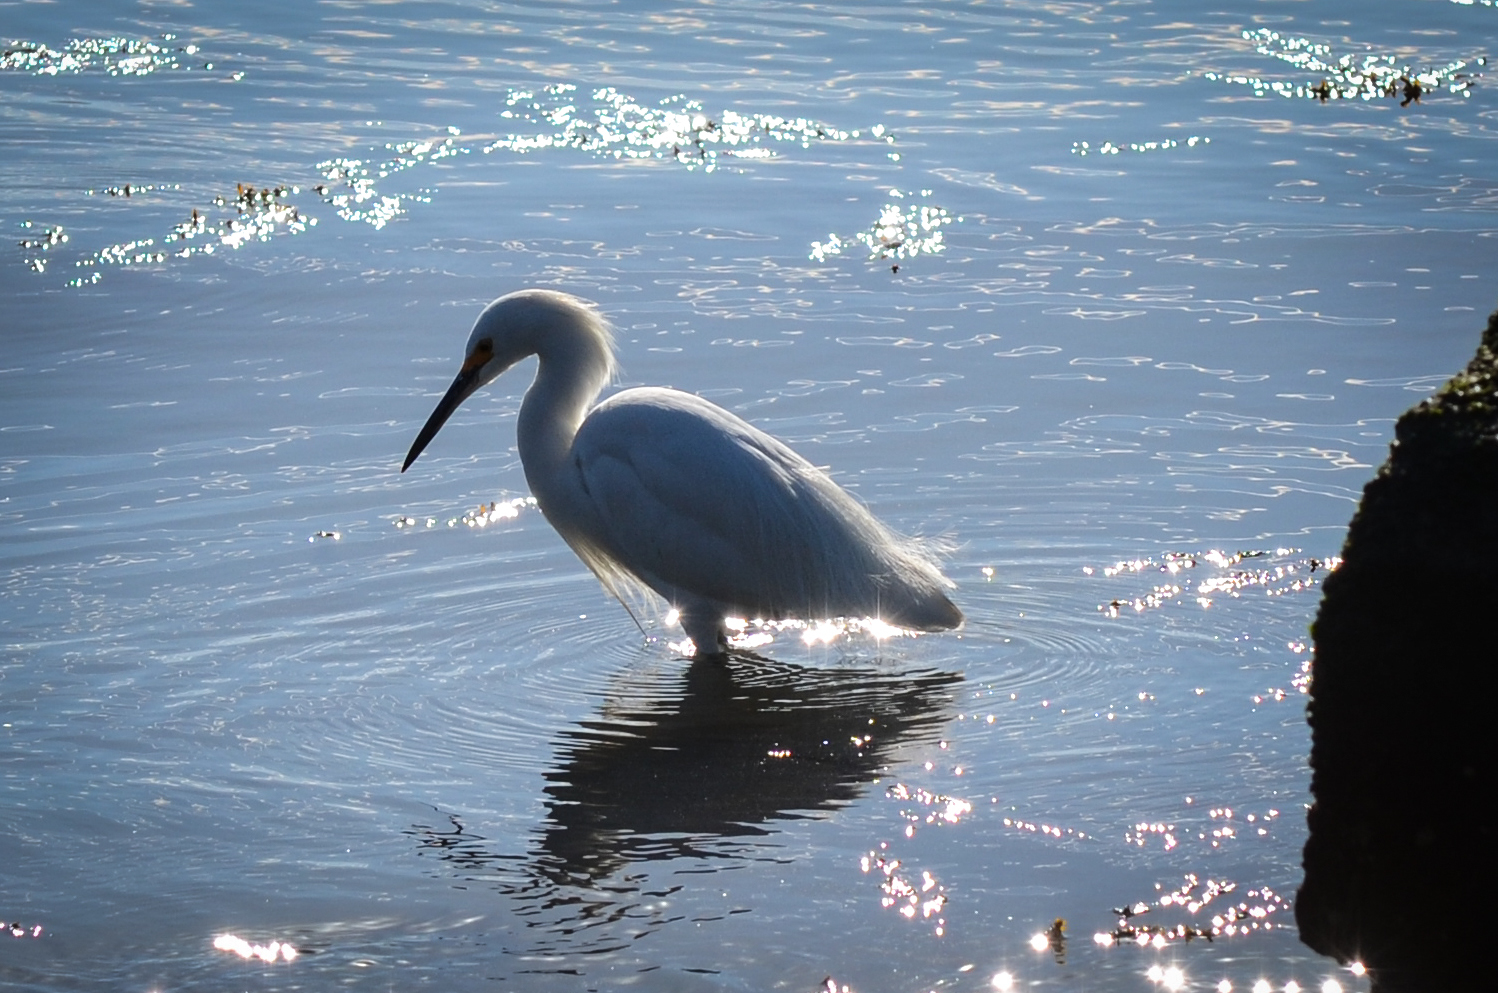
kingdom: Animalia
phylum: Chordata
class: Aves
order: Pelecaniformes
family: Ardeidae
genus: Egretta
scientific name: Egretta thula
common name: Snowy egret
